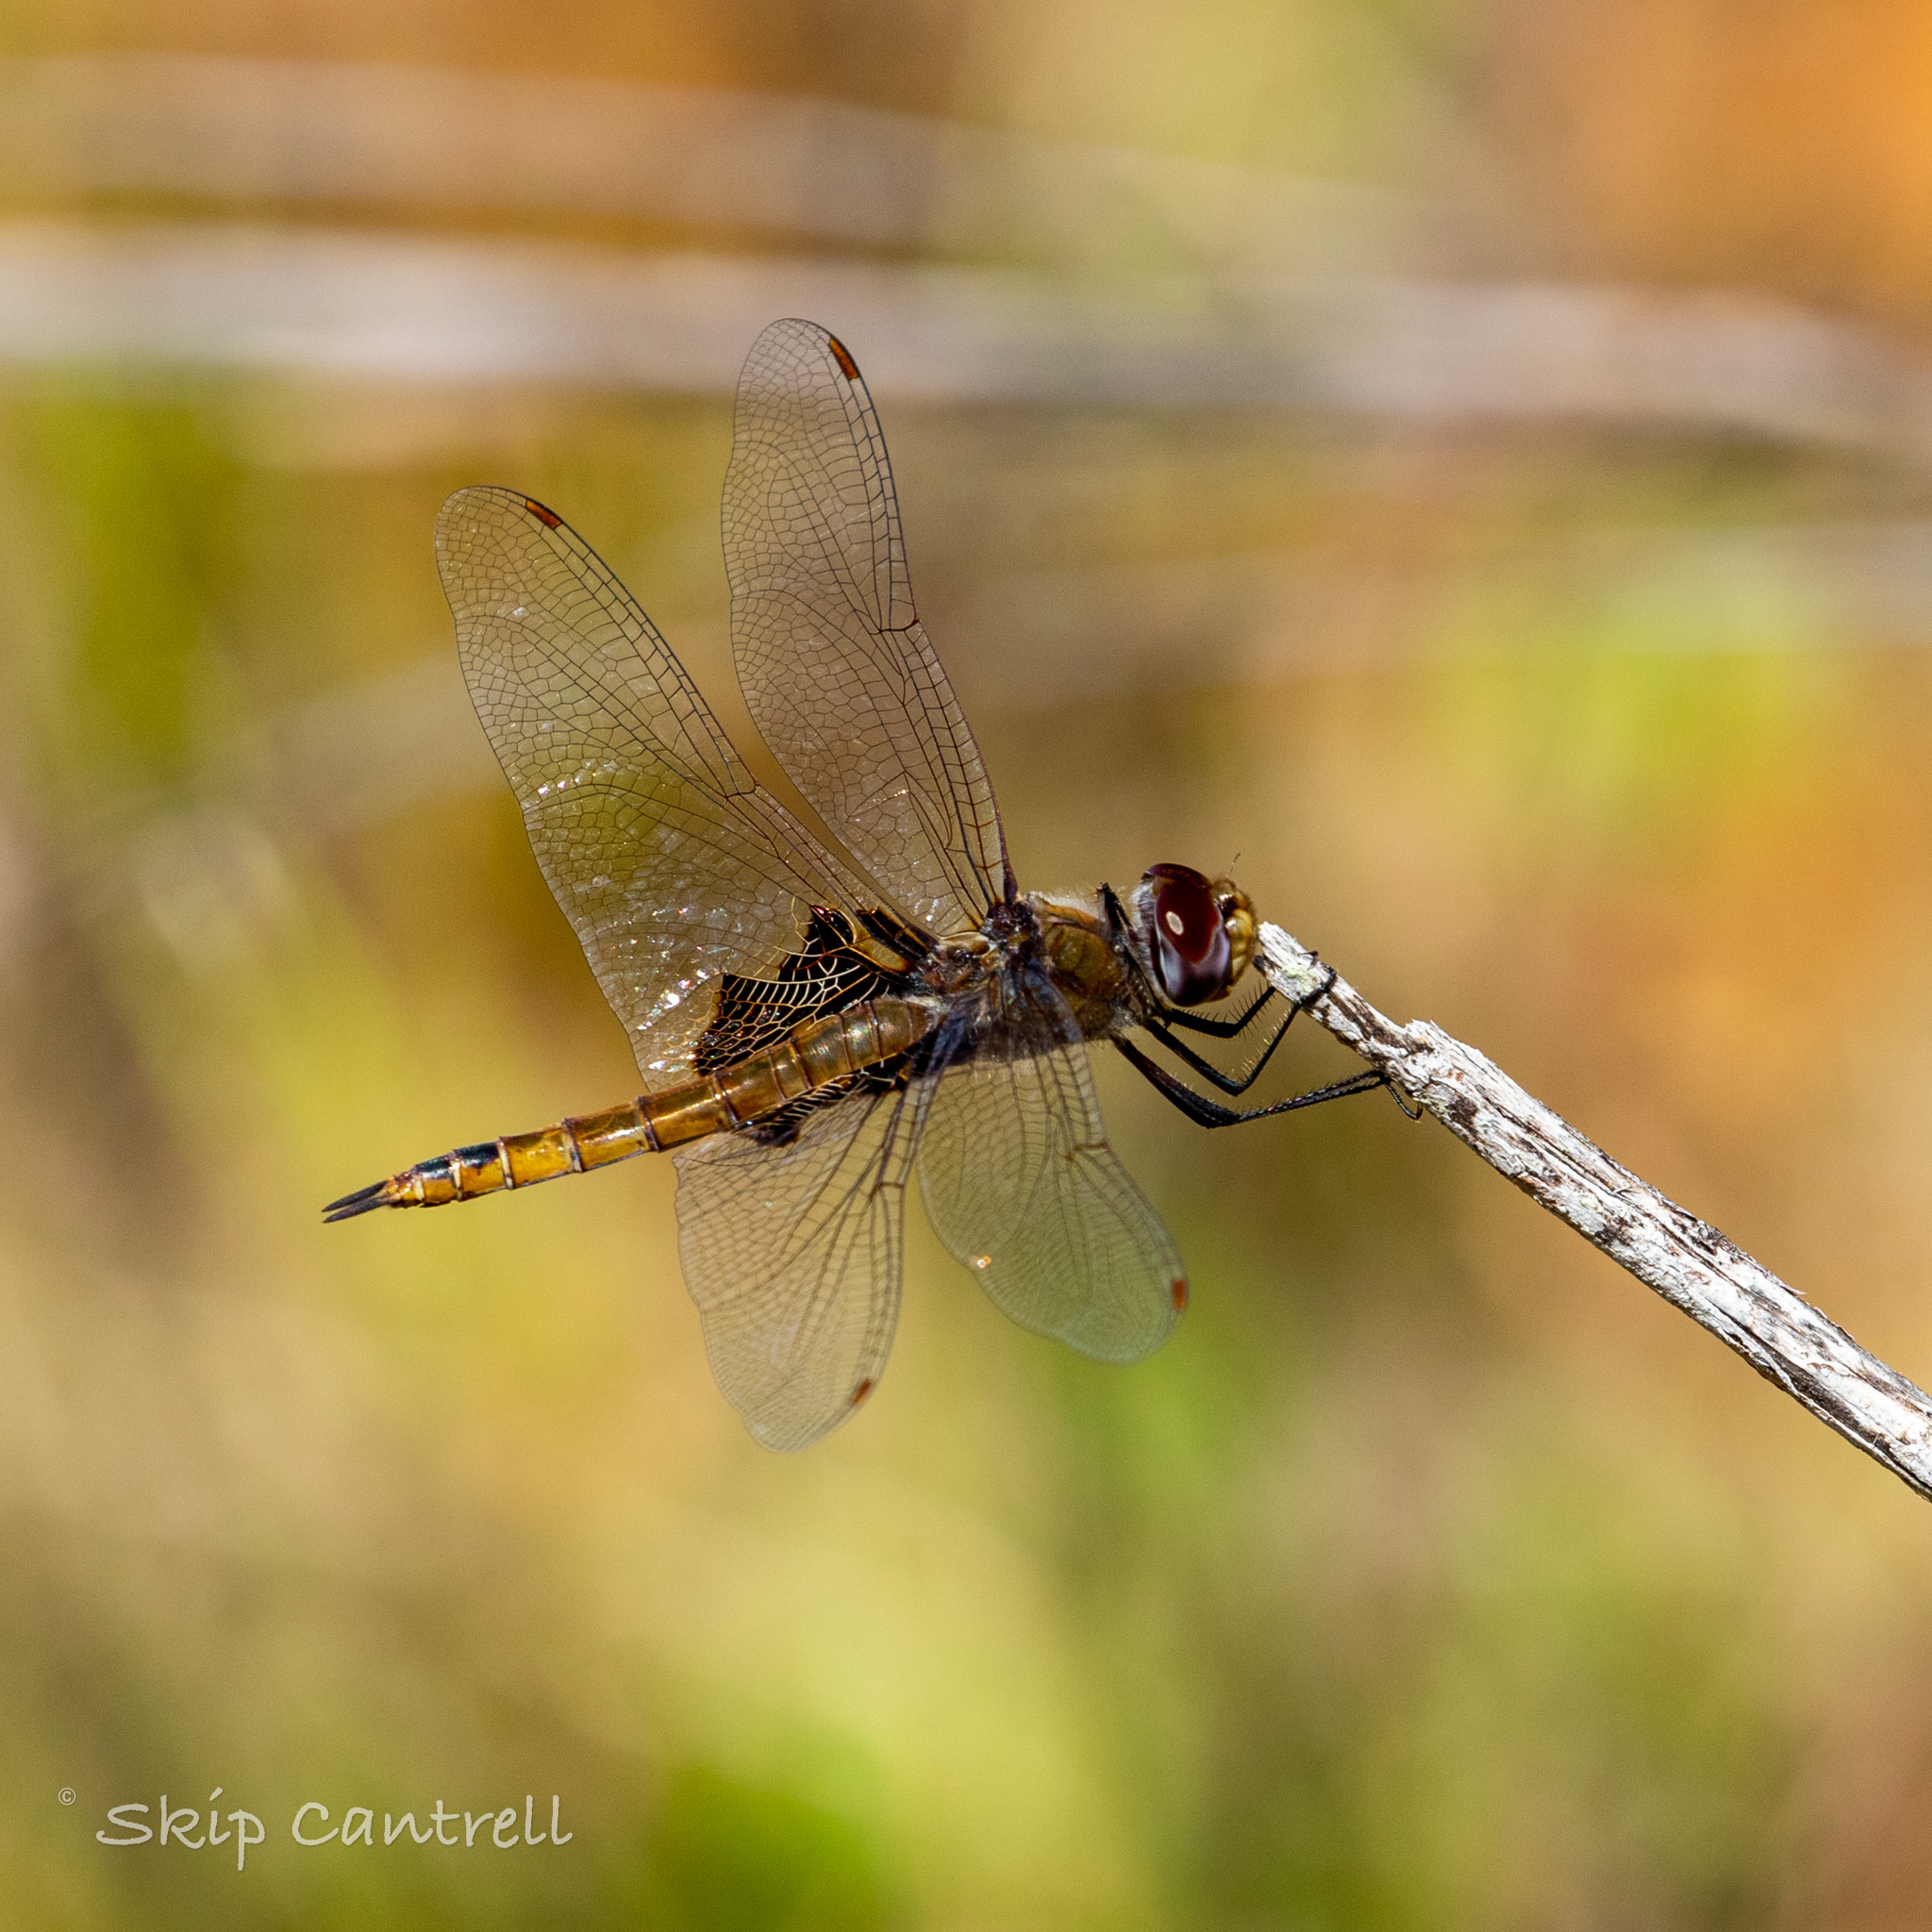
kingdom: Animalia
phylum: Arthropoda
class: Insecta
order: Odonata
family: Libellulidae
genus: Tramea
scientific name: Tramea onusta
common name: Red saddlebags
